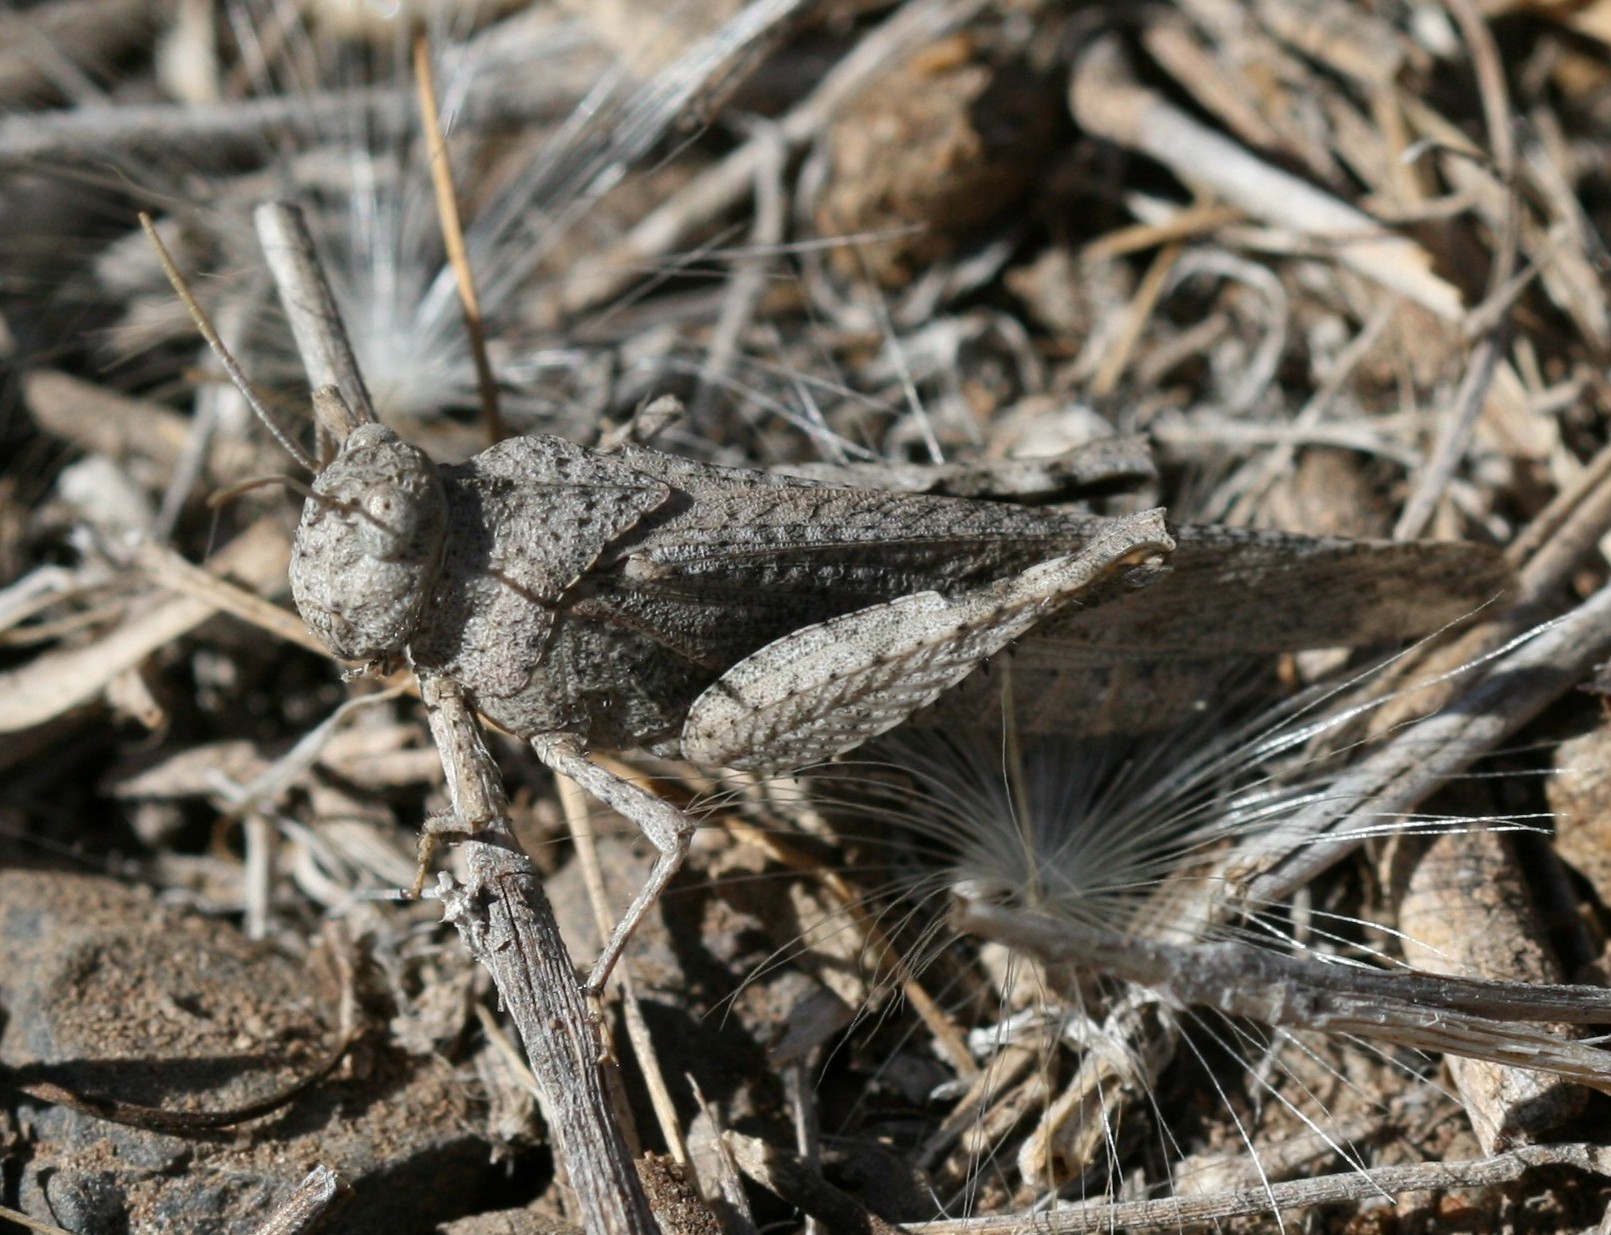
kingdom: Animalia
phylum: Arthropoda
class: Insecta
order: Orthoptera
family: Acrididae
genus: Oedipoda
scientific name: Oedipoda canariensis
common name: Canarian band-winged grasshopper
